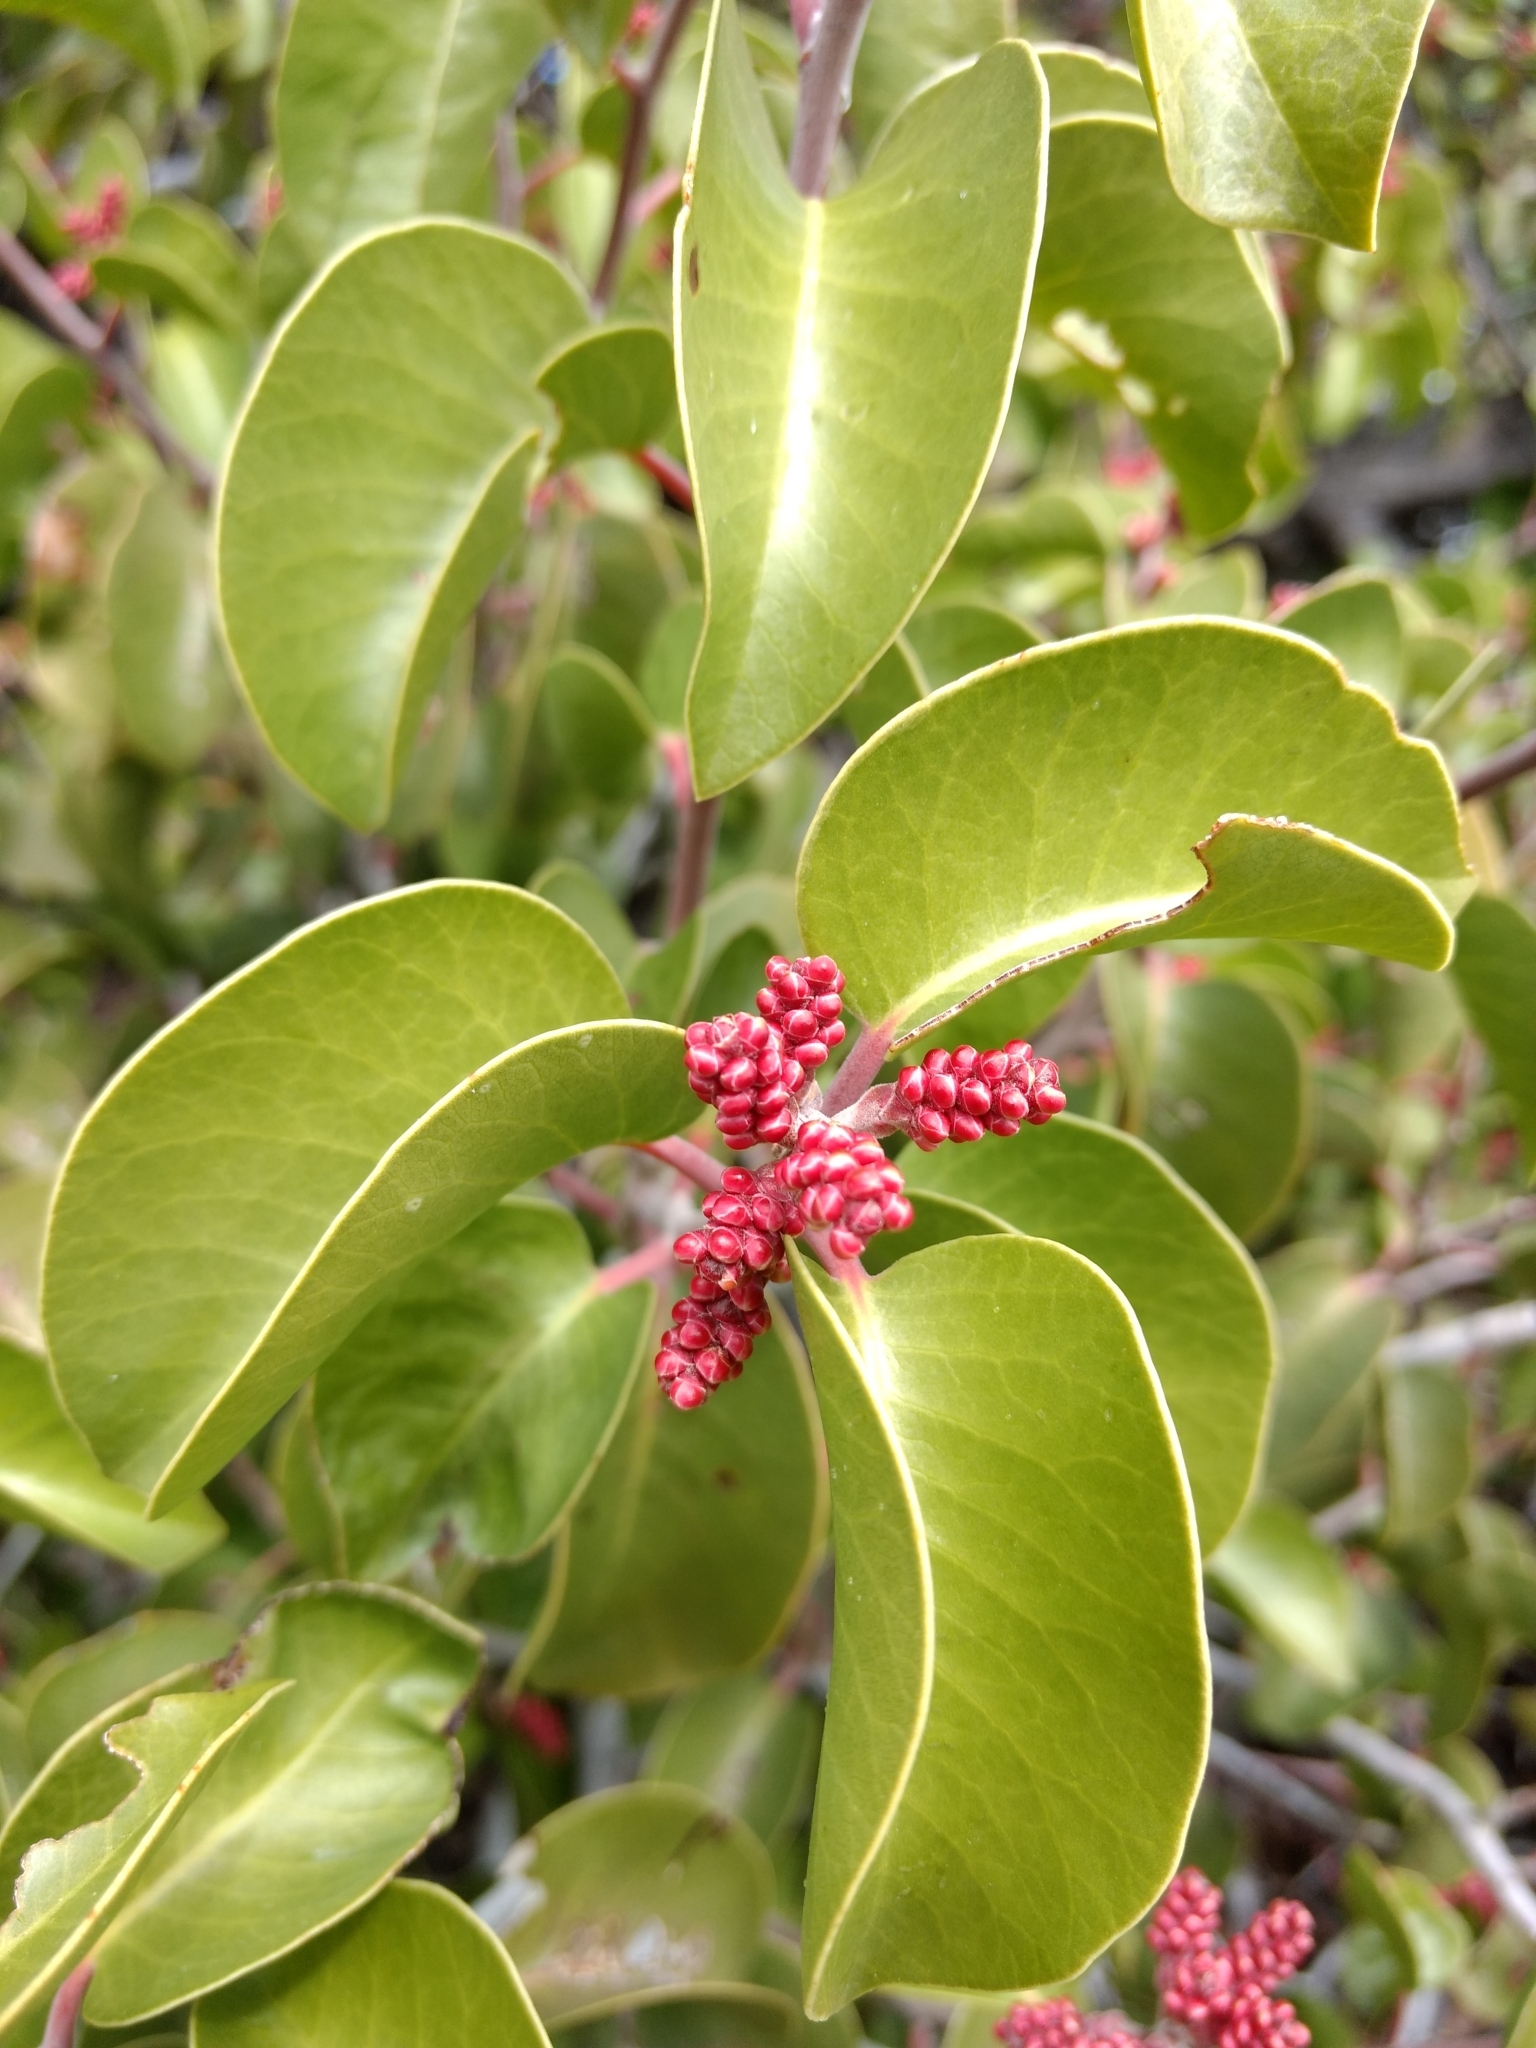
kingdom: Plantae
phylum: Tracheophyta
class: Magnoliopsida
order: Sapindales
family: Anacardiaceae
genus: Rhus
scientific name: Rhus ovata
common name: Sugar sumac
